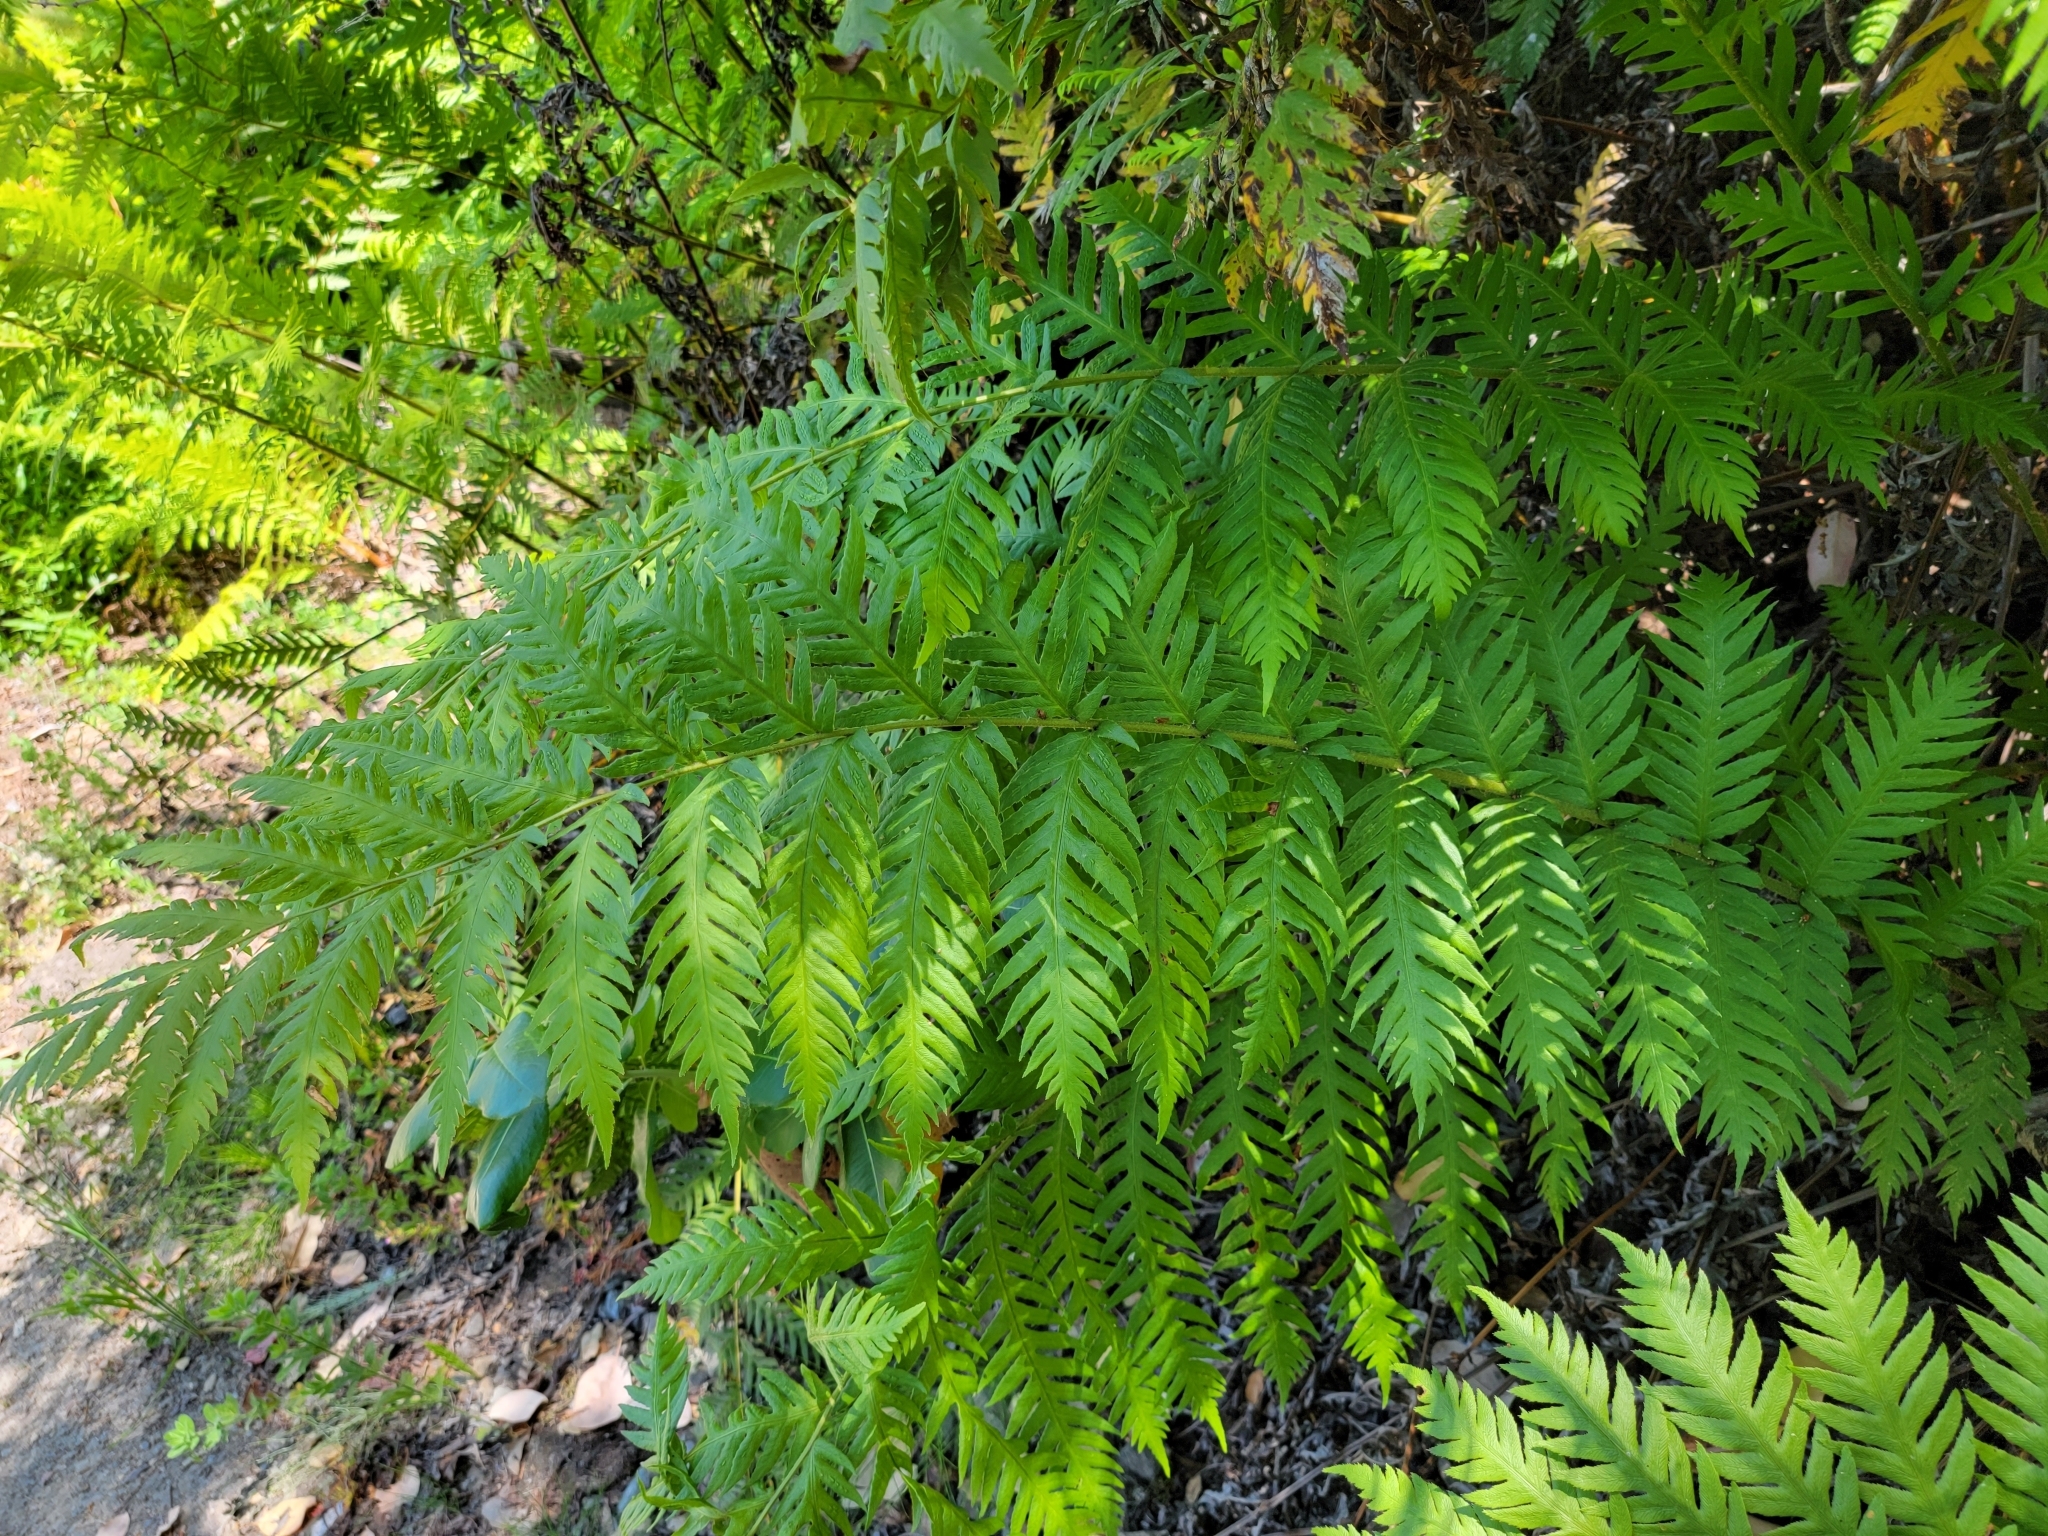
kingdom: Plantae
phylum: Tracheophyta
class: Polypodiopsida
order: Polypodiales
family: Blechnaceae
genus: Woodwardia
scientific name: Woodwardia fimbriata
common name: Giant chain fern
